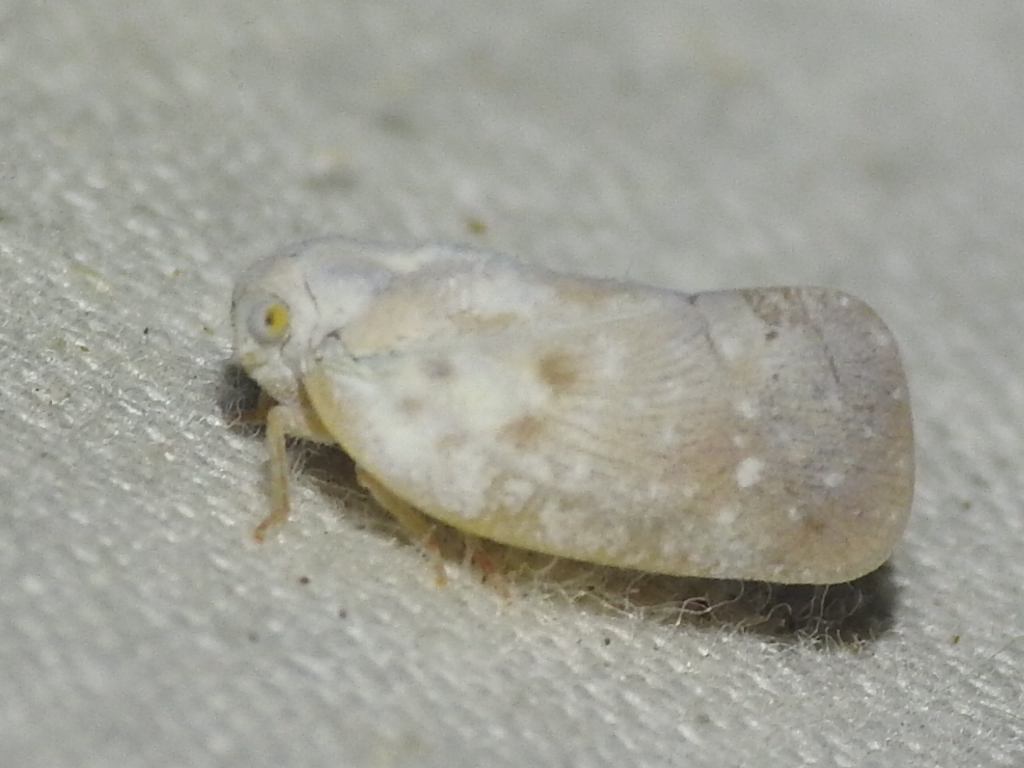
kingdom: Animalia
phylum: Arthropoda
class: Insecta
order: Hemiptera
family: Flatidae
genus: Metcalfa
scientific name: Metcalfa pruinosa
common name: Citrus flatid planthopper
